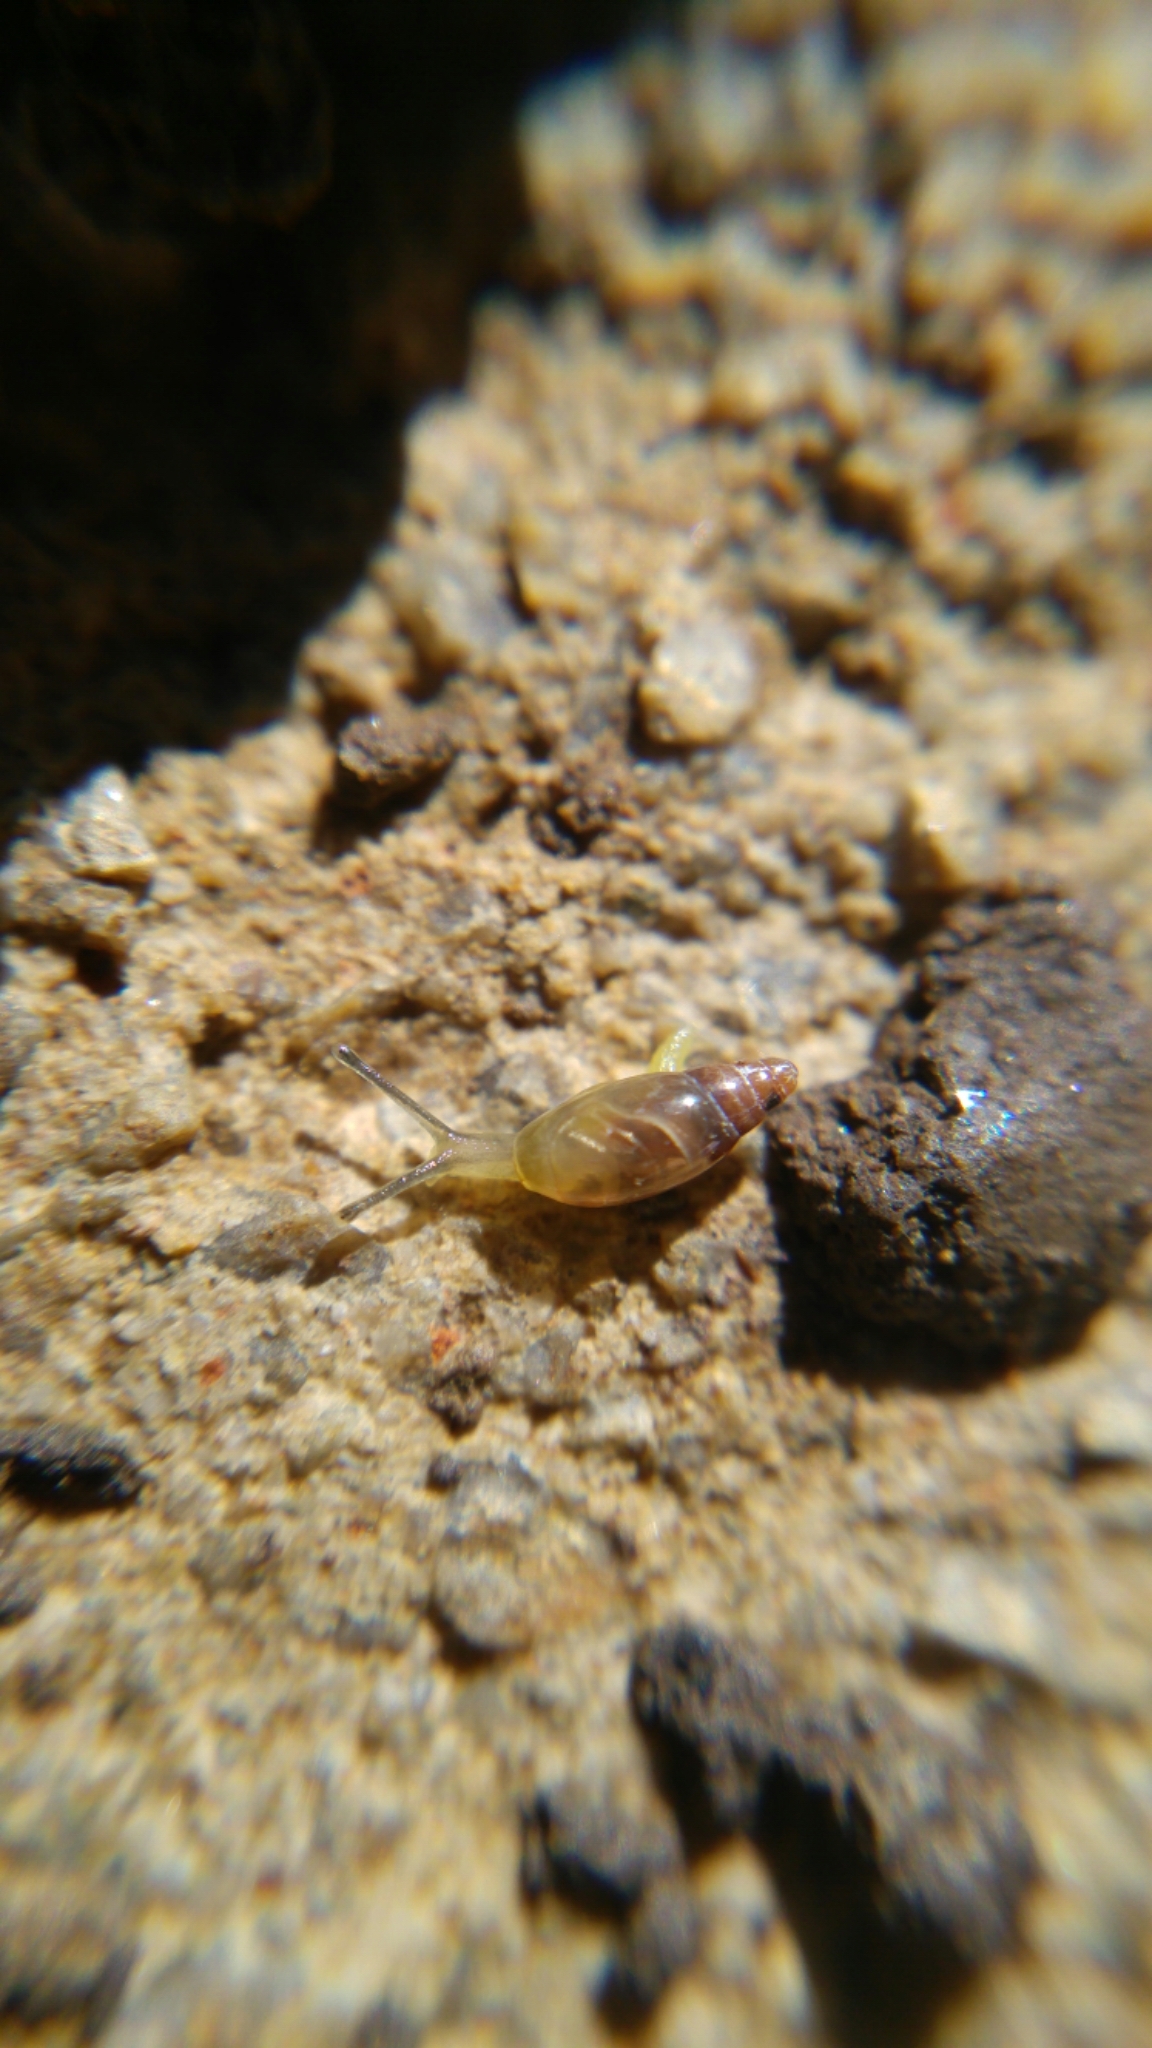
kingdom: Animalia
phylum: Mollusca
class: Gastropoda
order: Stylommatophora
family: Ferussaciidae
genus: Hohenwartiana
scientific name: Hohenwartiana hohenwarti
